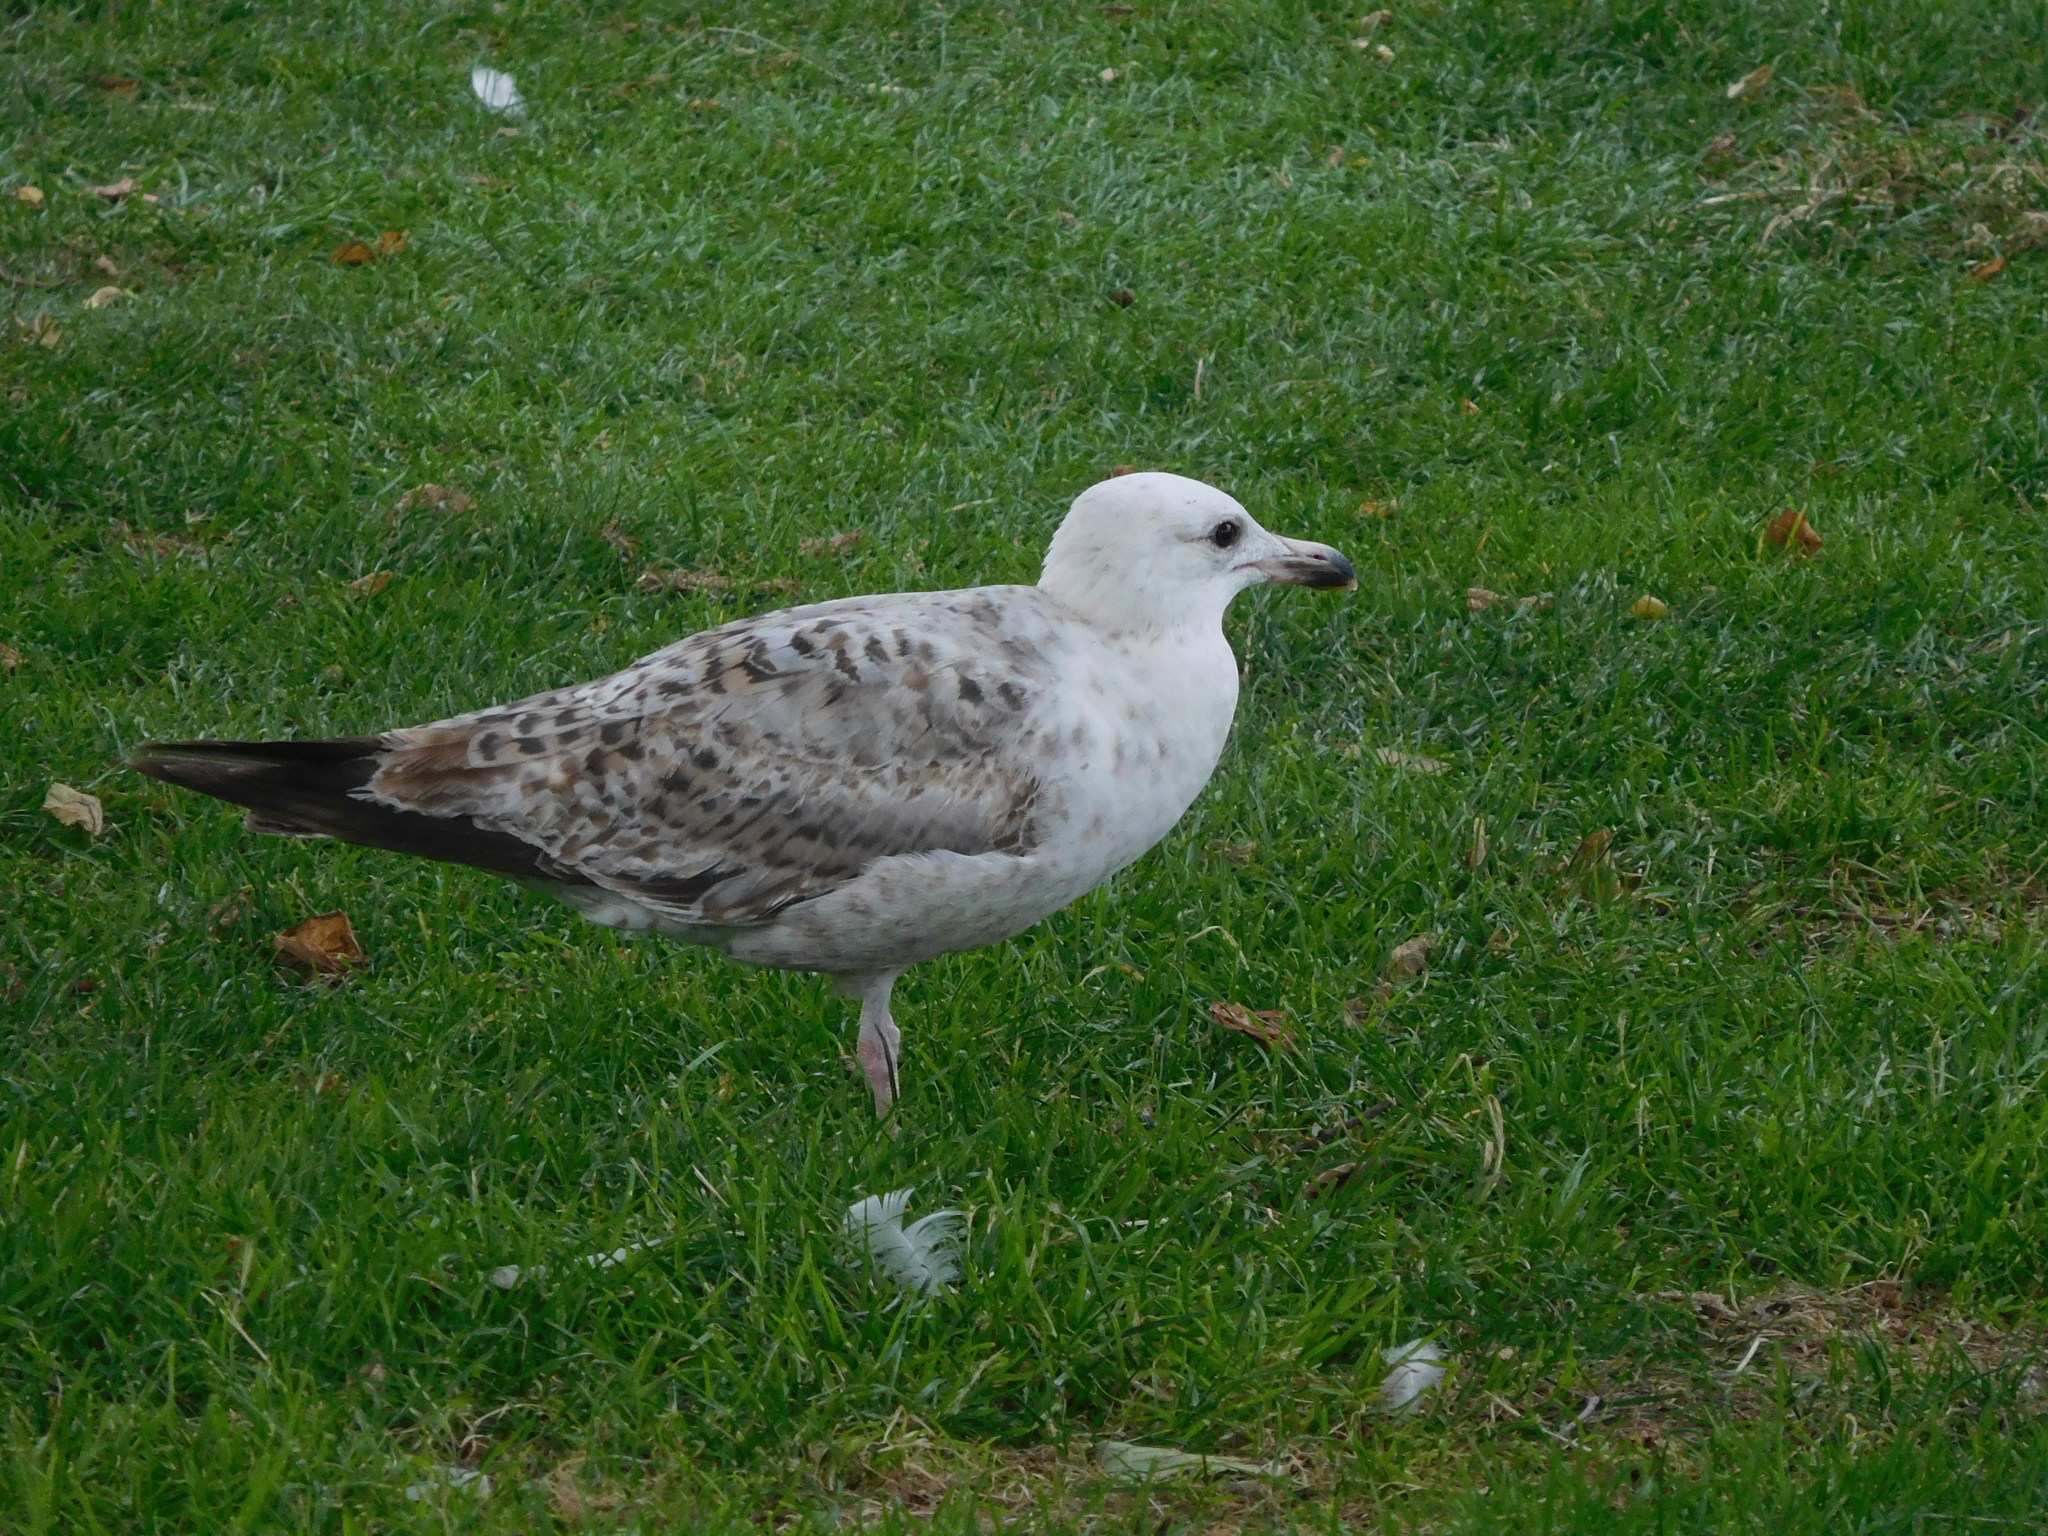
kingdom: Animalia
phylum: Chordata
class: Aves
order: Charadriiformes
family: Laridae
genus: Larus
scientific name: Larus argentatus
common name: Herring gull
